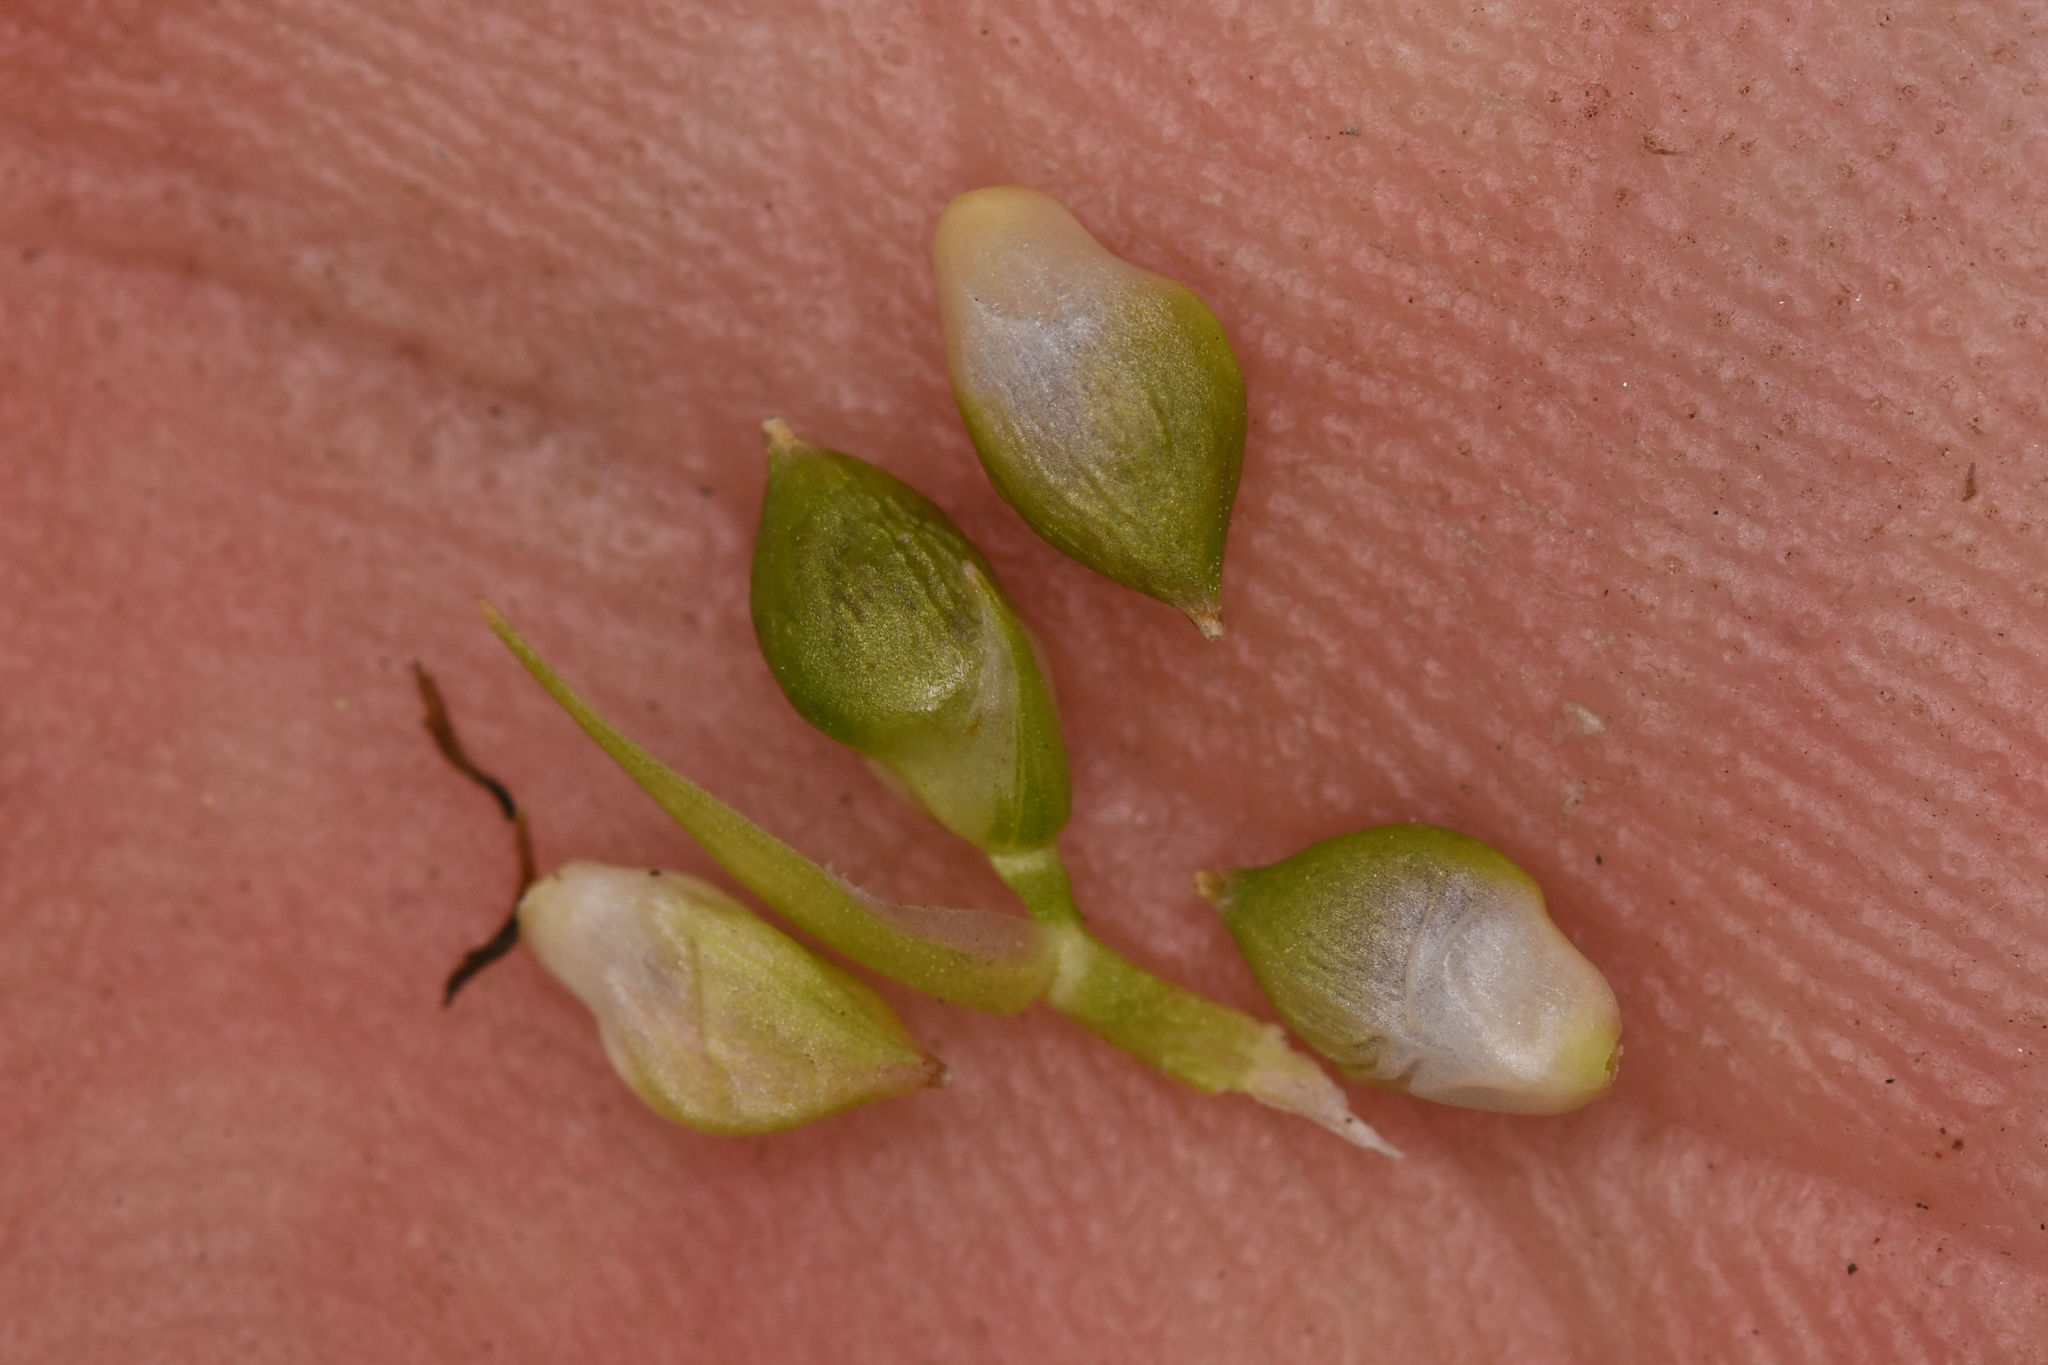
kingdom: Plantae
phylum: Tracheophyta
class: Liliopsida
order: Poales
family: Cyperaceae
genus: Carex
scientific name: Carex cordillerana
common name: Cordilleran sedge
